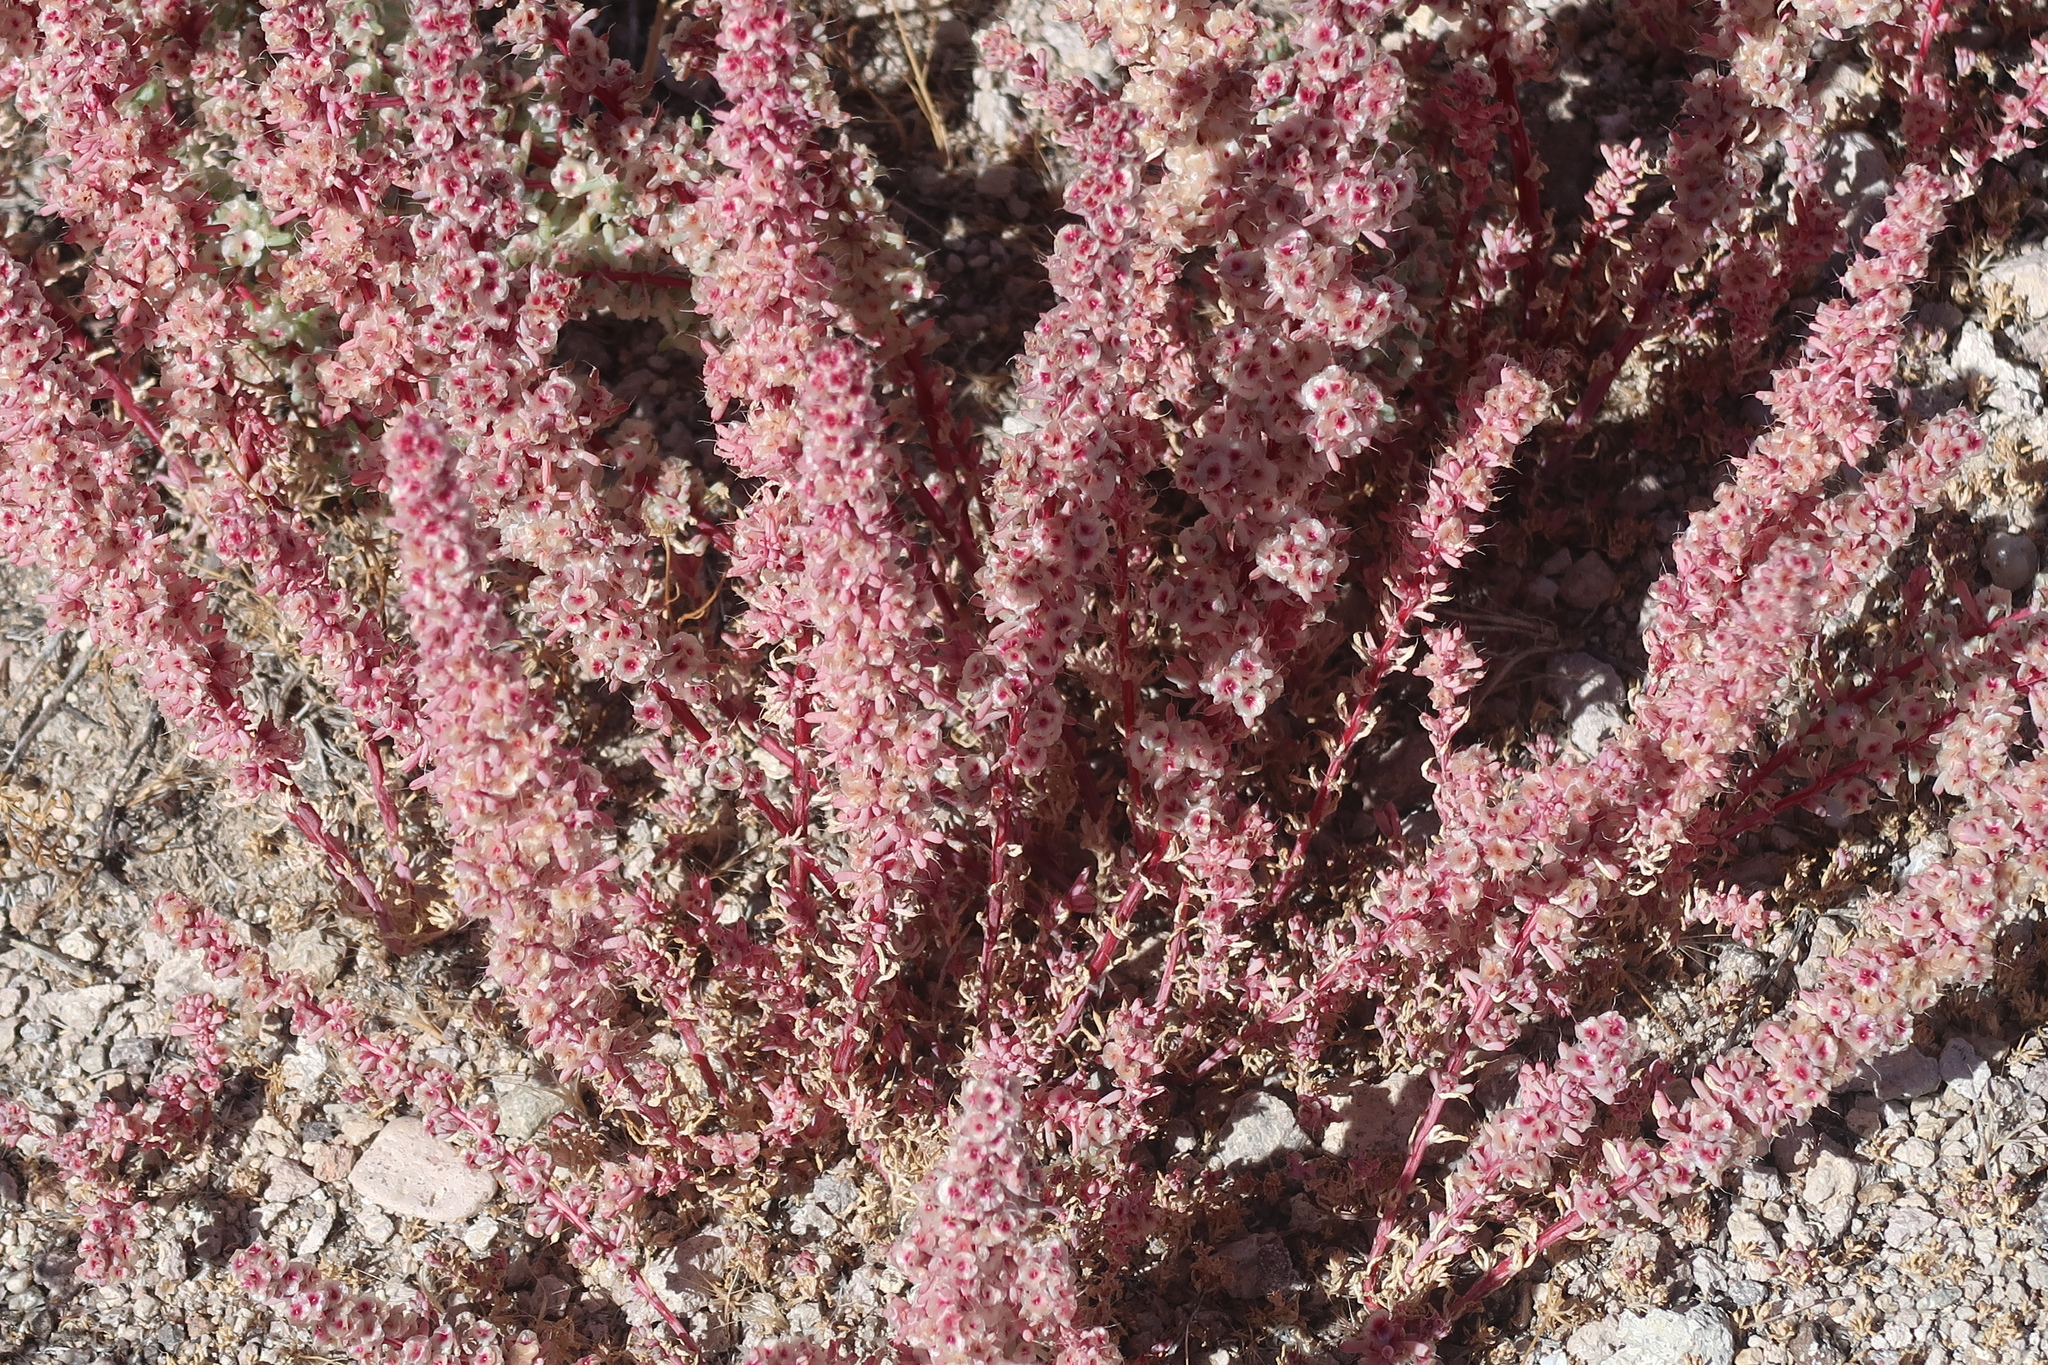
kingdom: Plantae
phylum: Tracheophyta
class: Magnoliopsida
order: Caryophyllales
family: Amaranthaceae
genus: Halogeton
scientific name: Halogeton glomeratus
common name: Saltlover
